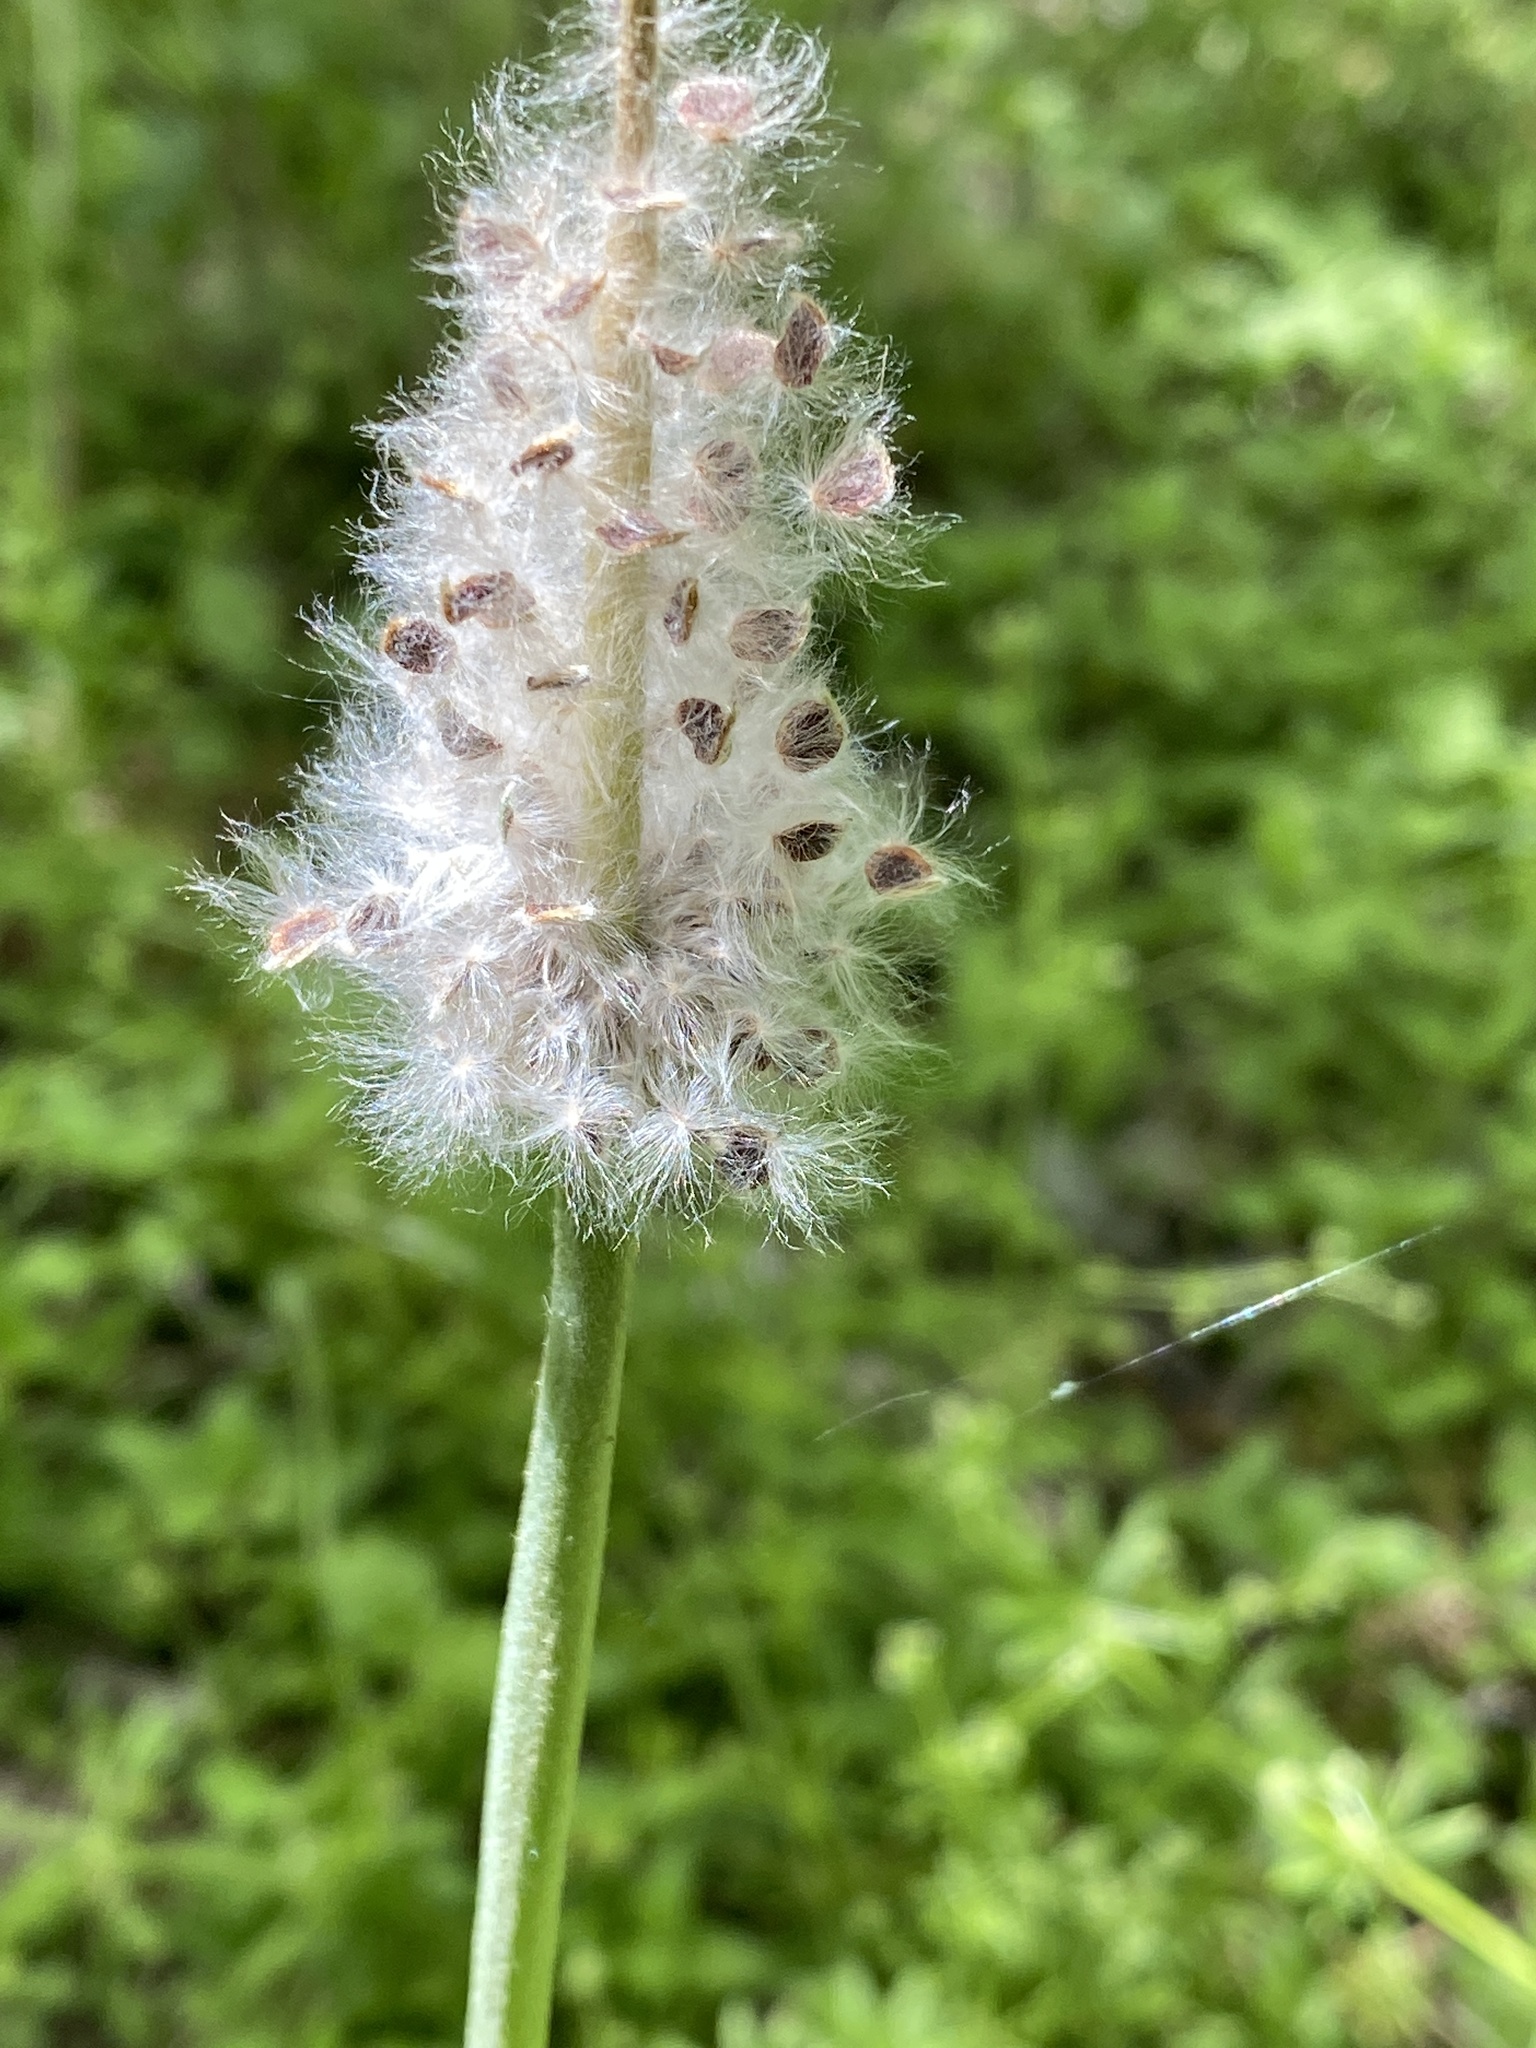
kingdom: Plantae
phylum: Tracheophyta
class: Magnoliopsida
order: Ranunculales
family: Ranunculaceae
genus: Anemone
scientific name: Anemone berlandieri
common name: Ten-petal anemone
